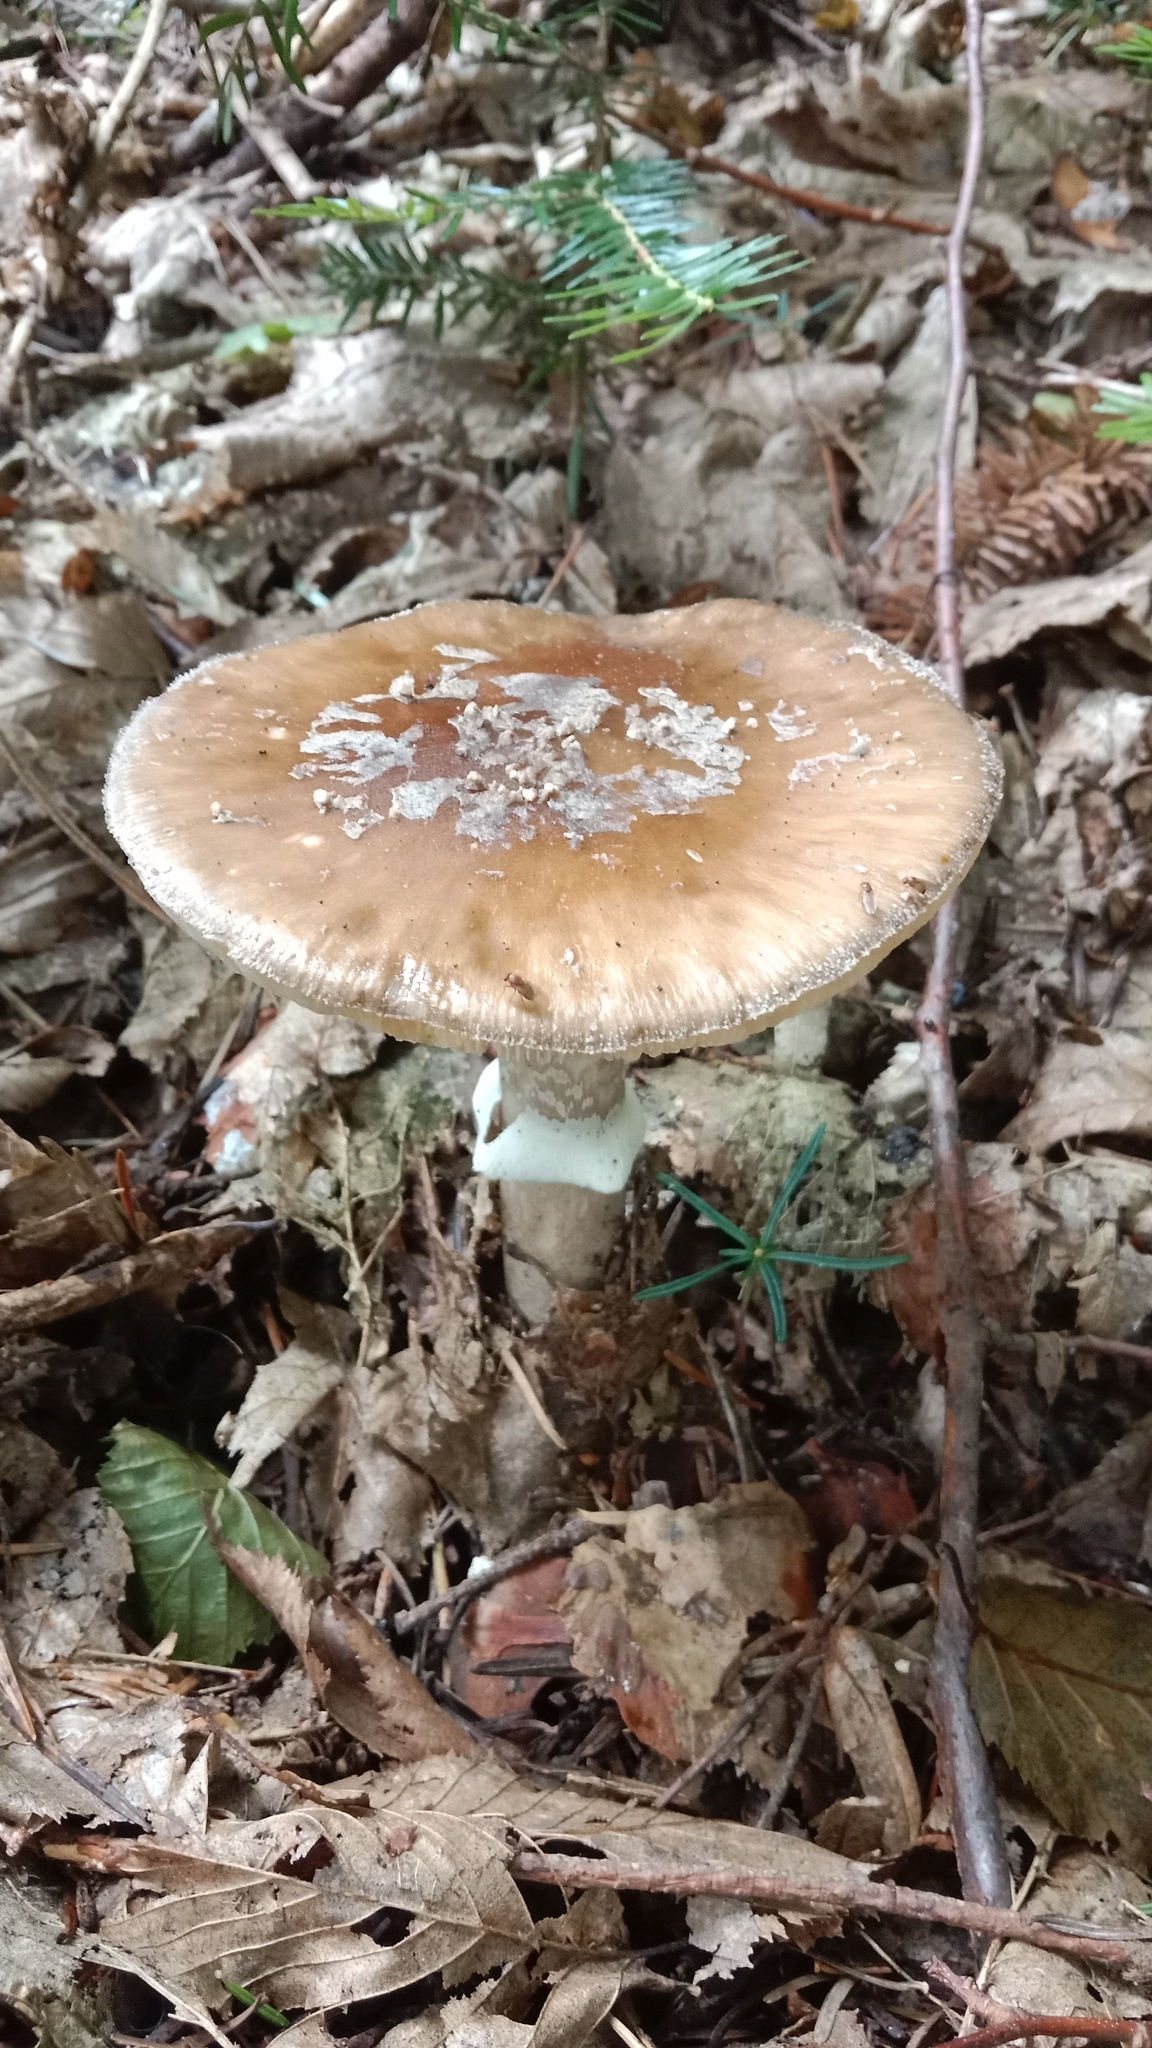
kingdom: Fungi
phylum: Basidiomycota
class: Agaricomycetes
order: Agaricales
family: Amanitaceae
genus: Amanita
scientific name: Amanita excelsa
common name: European false blusher
